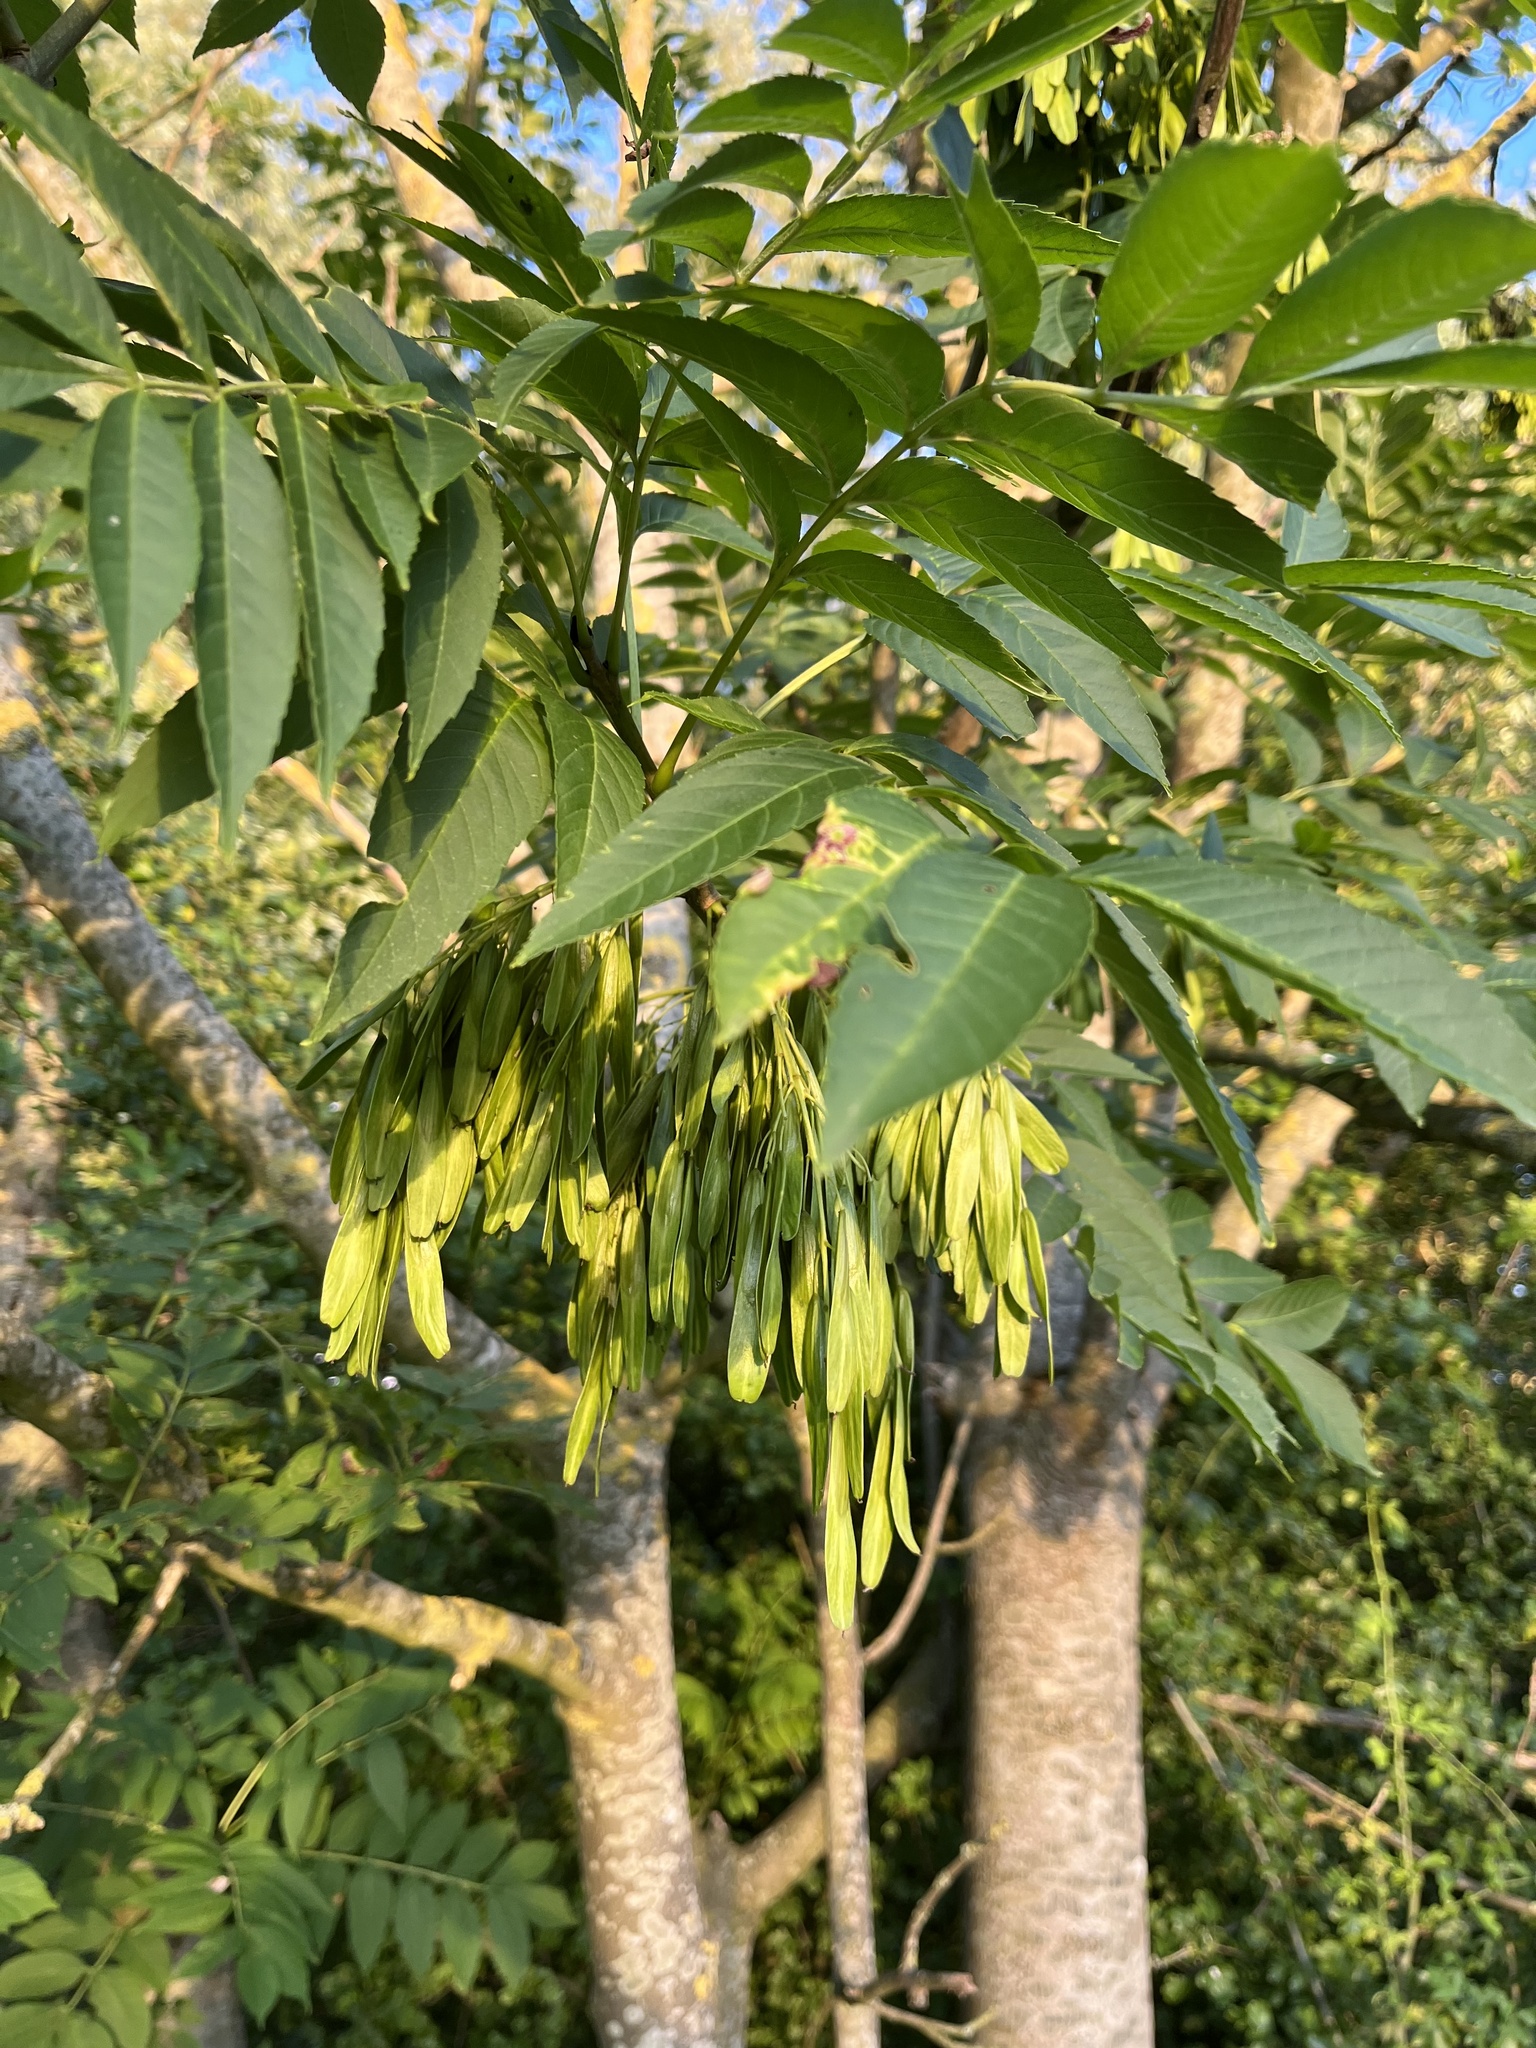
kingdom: Plantae
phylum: Tracheophyta
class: Magnoliopsida
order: Lamiales
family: Oleaceae
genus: Fraxinus
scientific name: Fraxinus excelsior
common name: European ash
